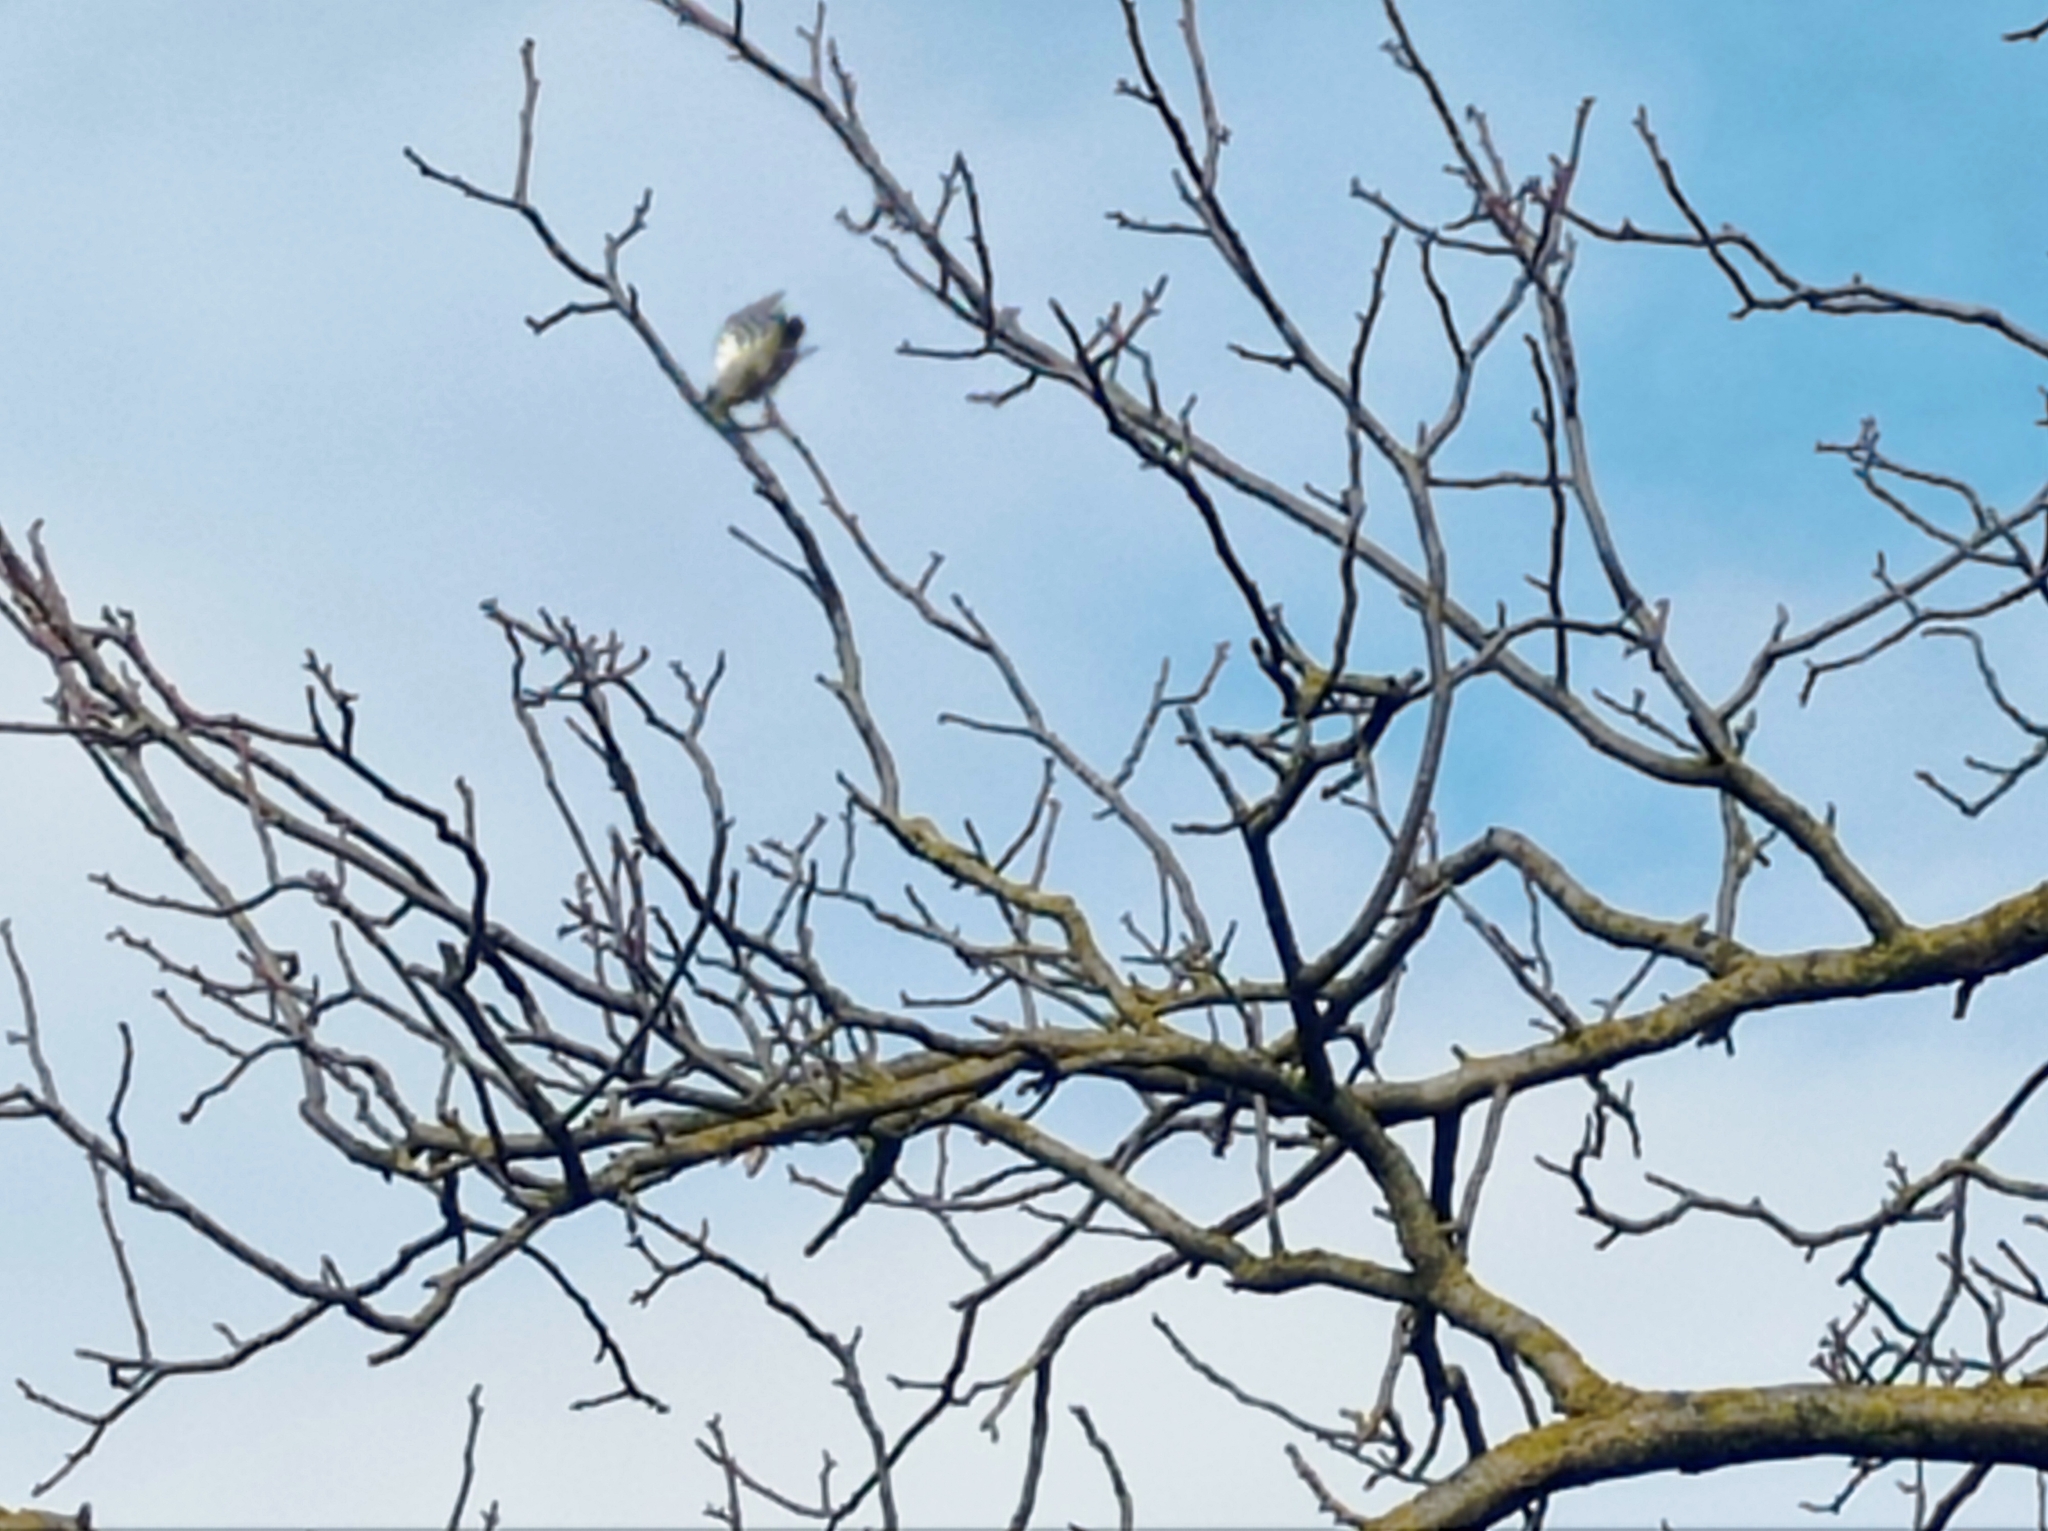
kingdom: Animalia
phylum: Chordata
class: Aves
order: Piciformes
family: Picidae
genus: Dryobates
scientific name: Dryobates minor
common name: Lesser spotted woodpecker
